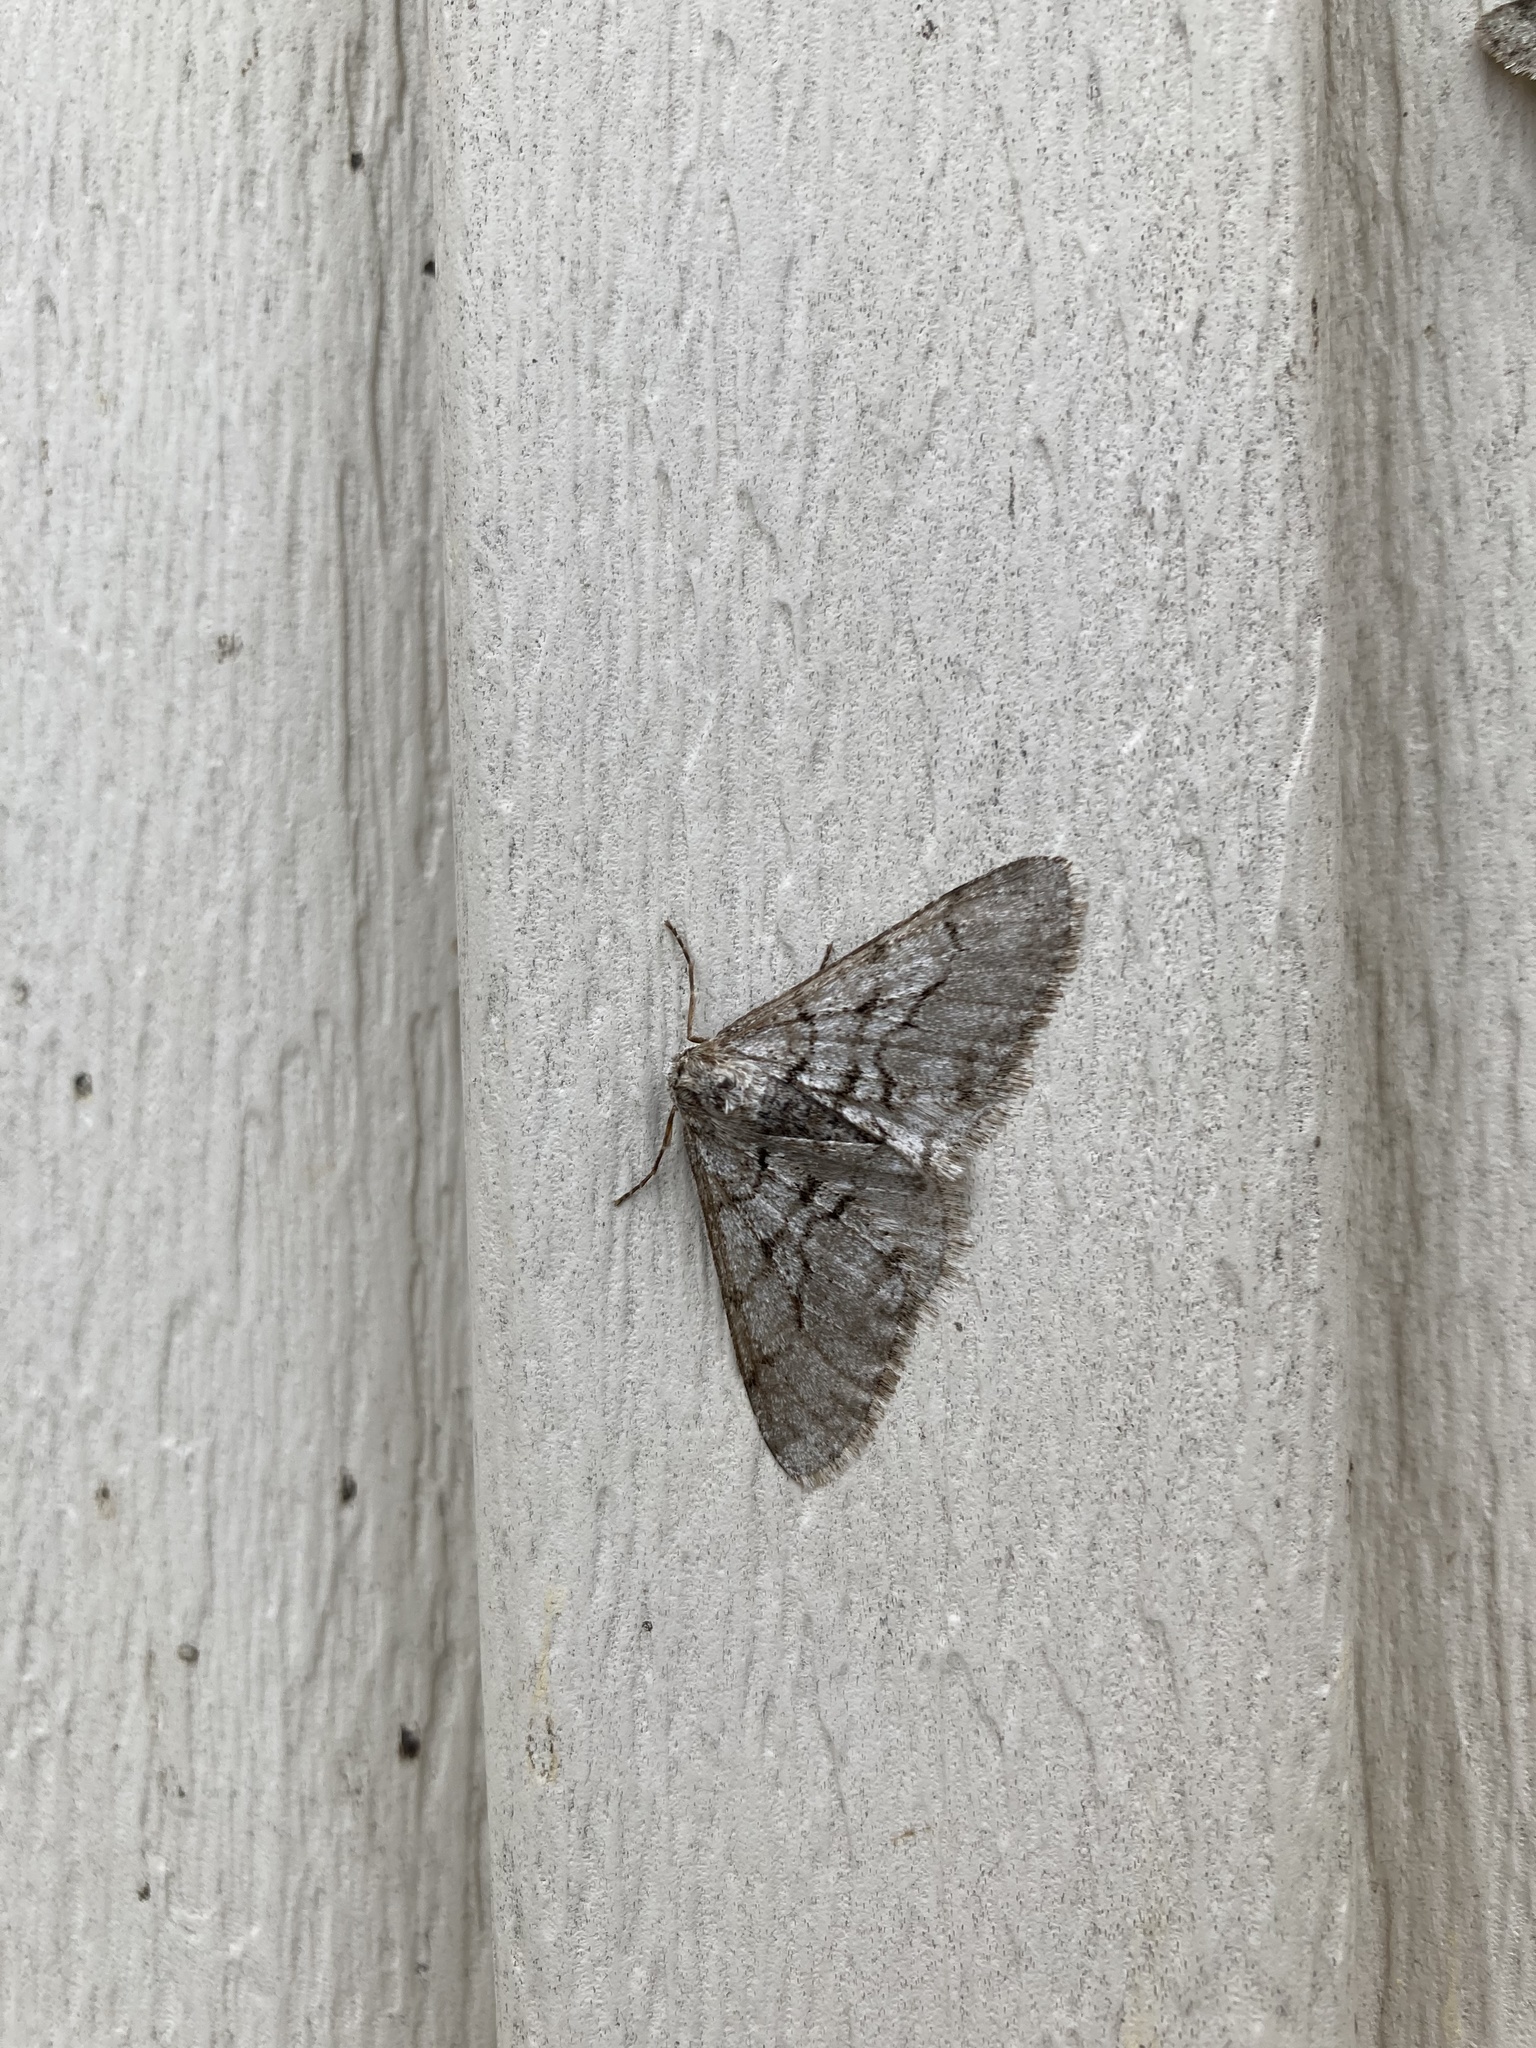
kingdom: Animalia
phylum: Arthropoda
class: Insecta
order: Lepidoptera
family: Geometridae
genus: Phigalia
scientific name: Phigalia titea
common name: Spiny looper
